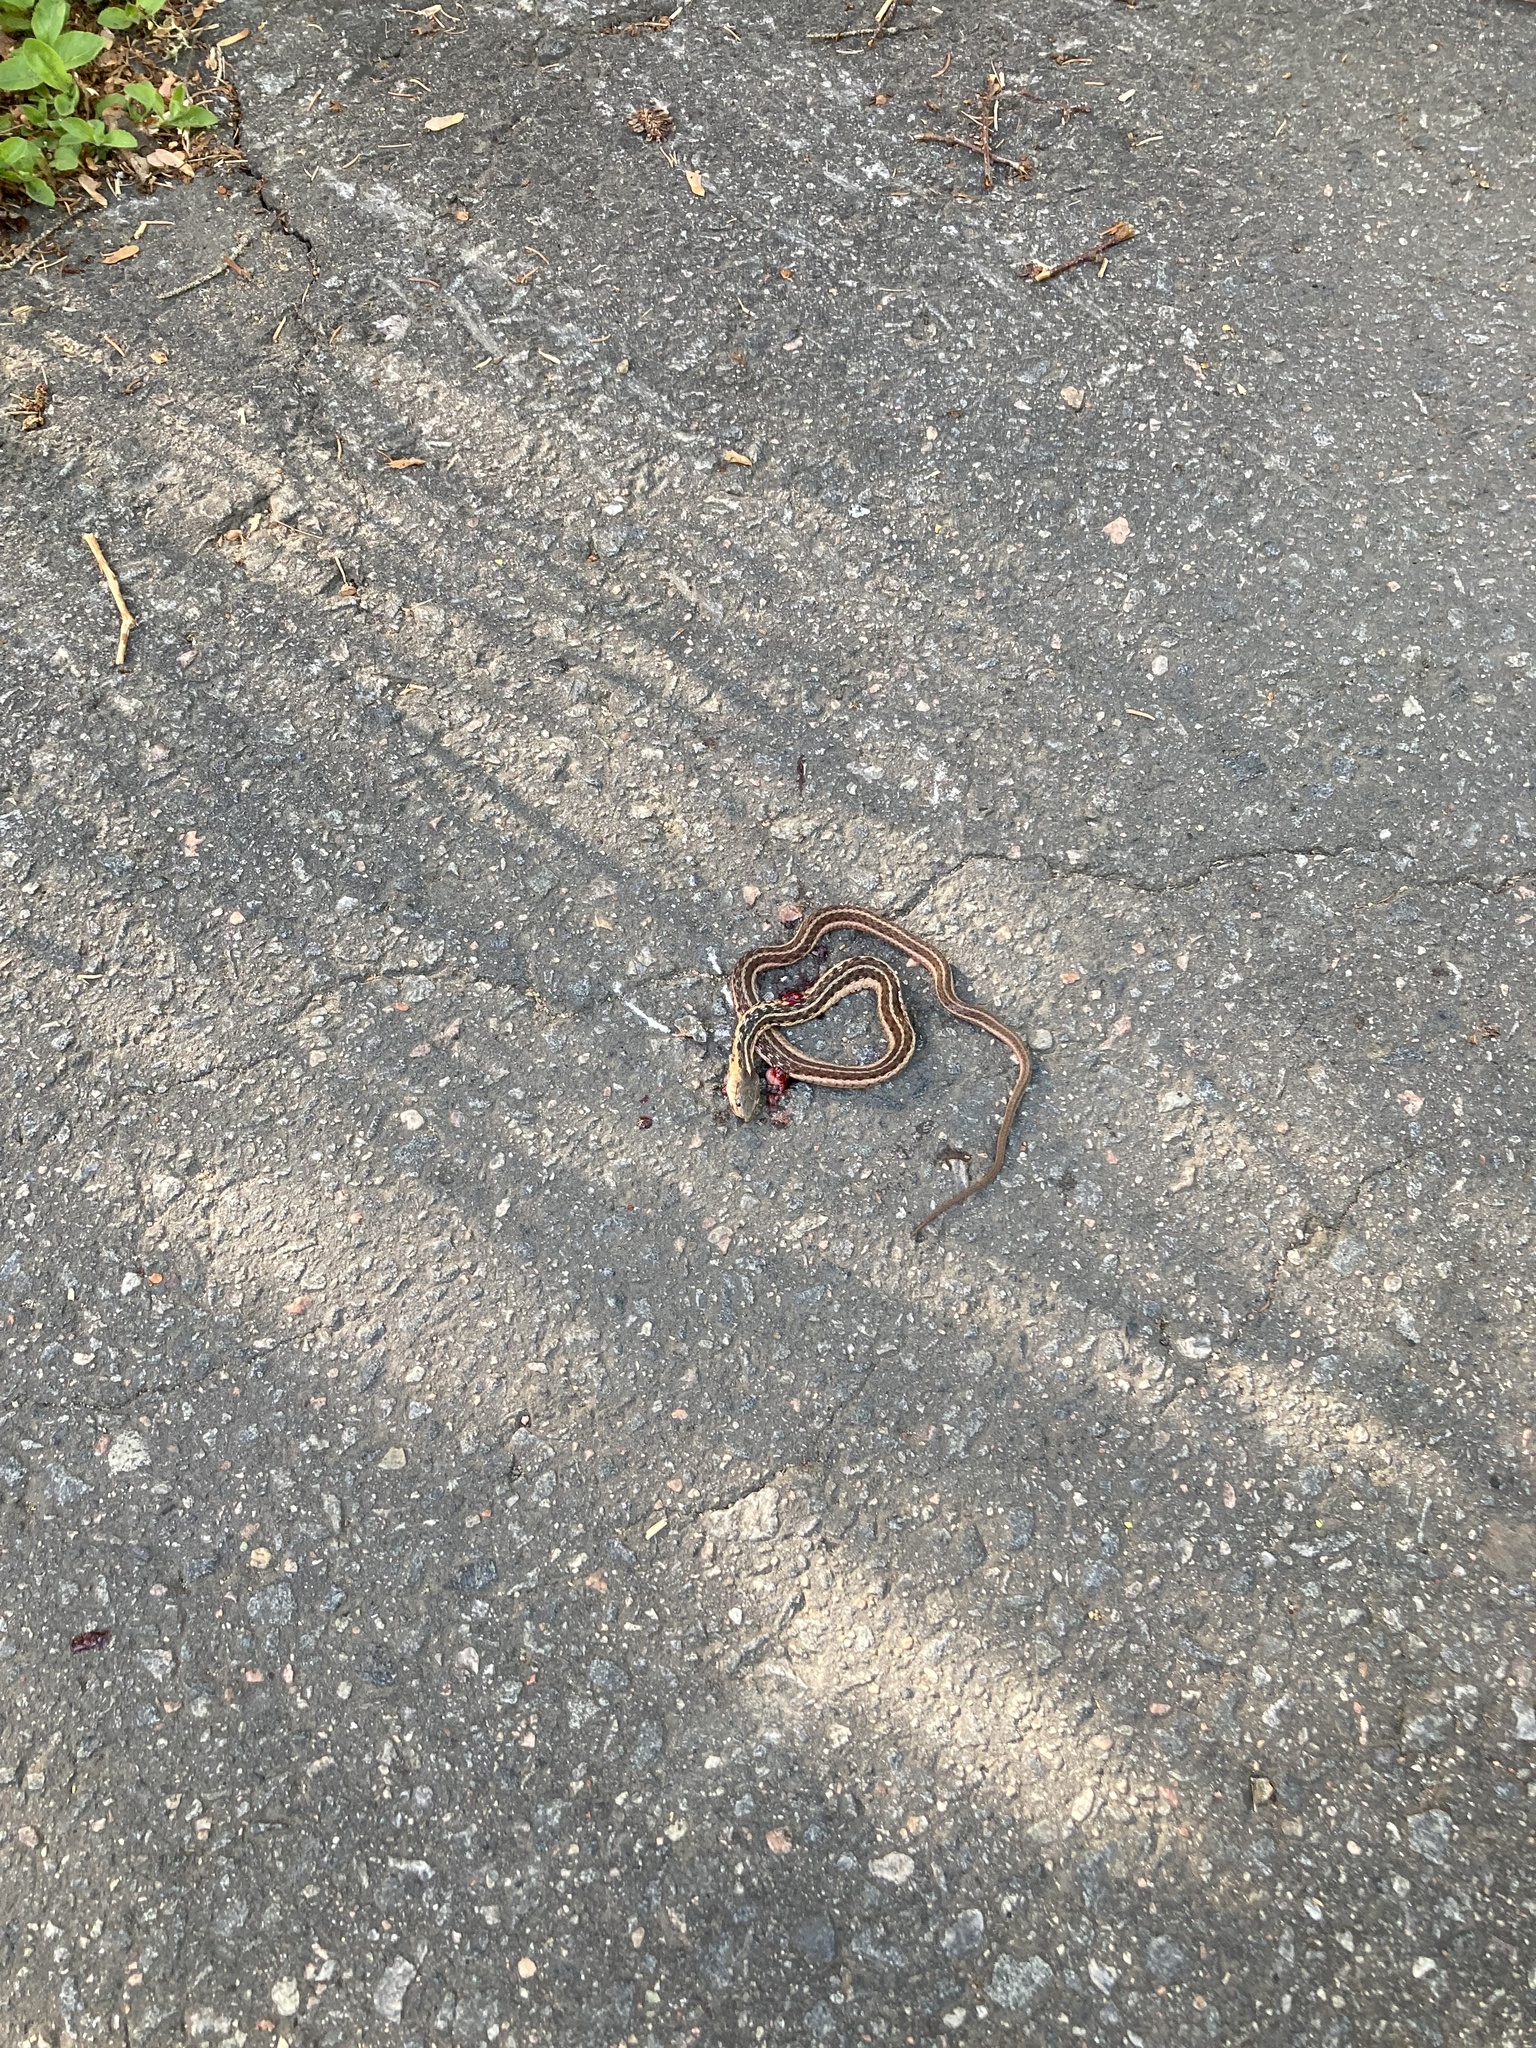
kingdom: Animalia
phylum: Chordata
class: Squamata
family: Colubridae
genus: Thamnophis
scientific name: Thamnophis sirtalis
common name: Common garter snake
